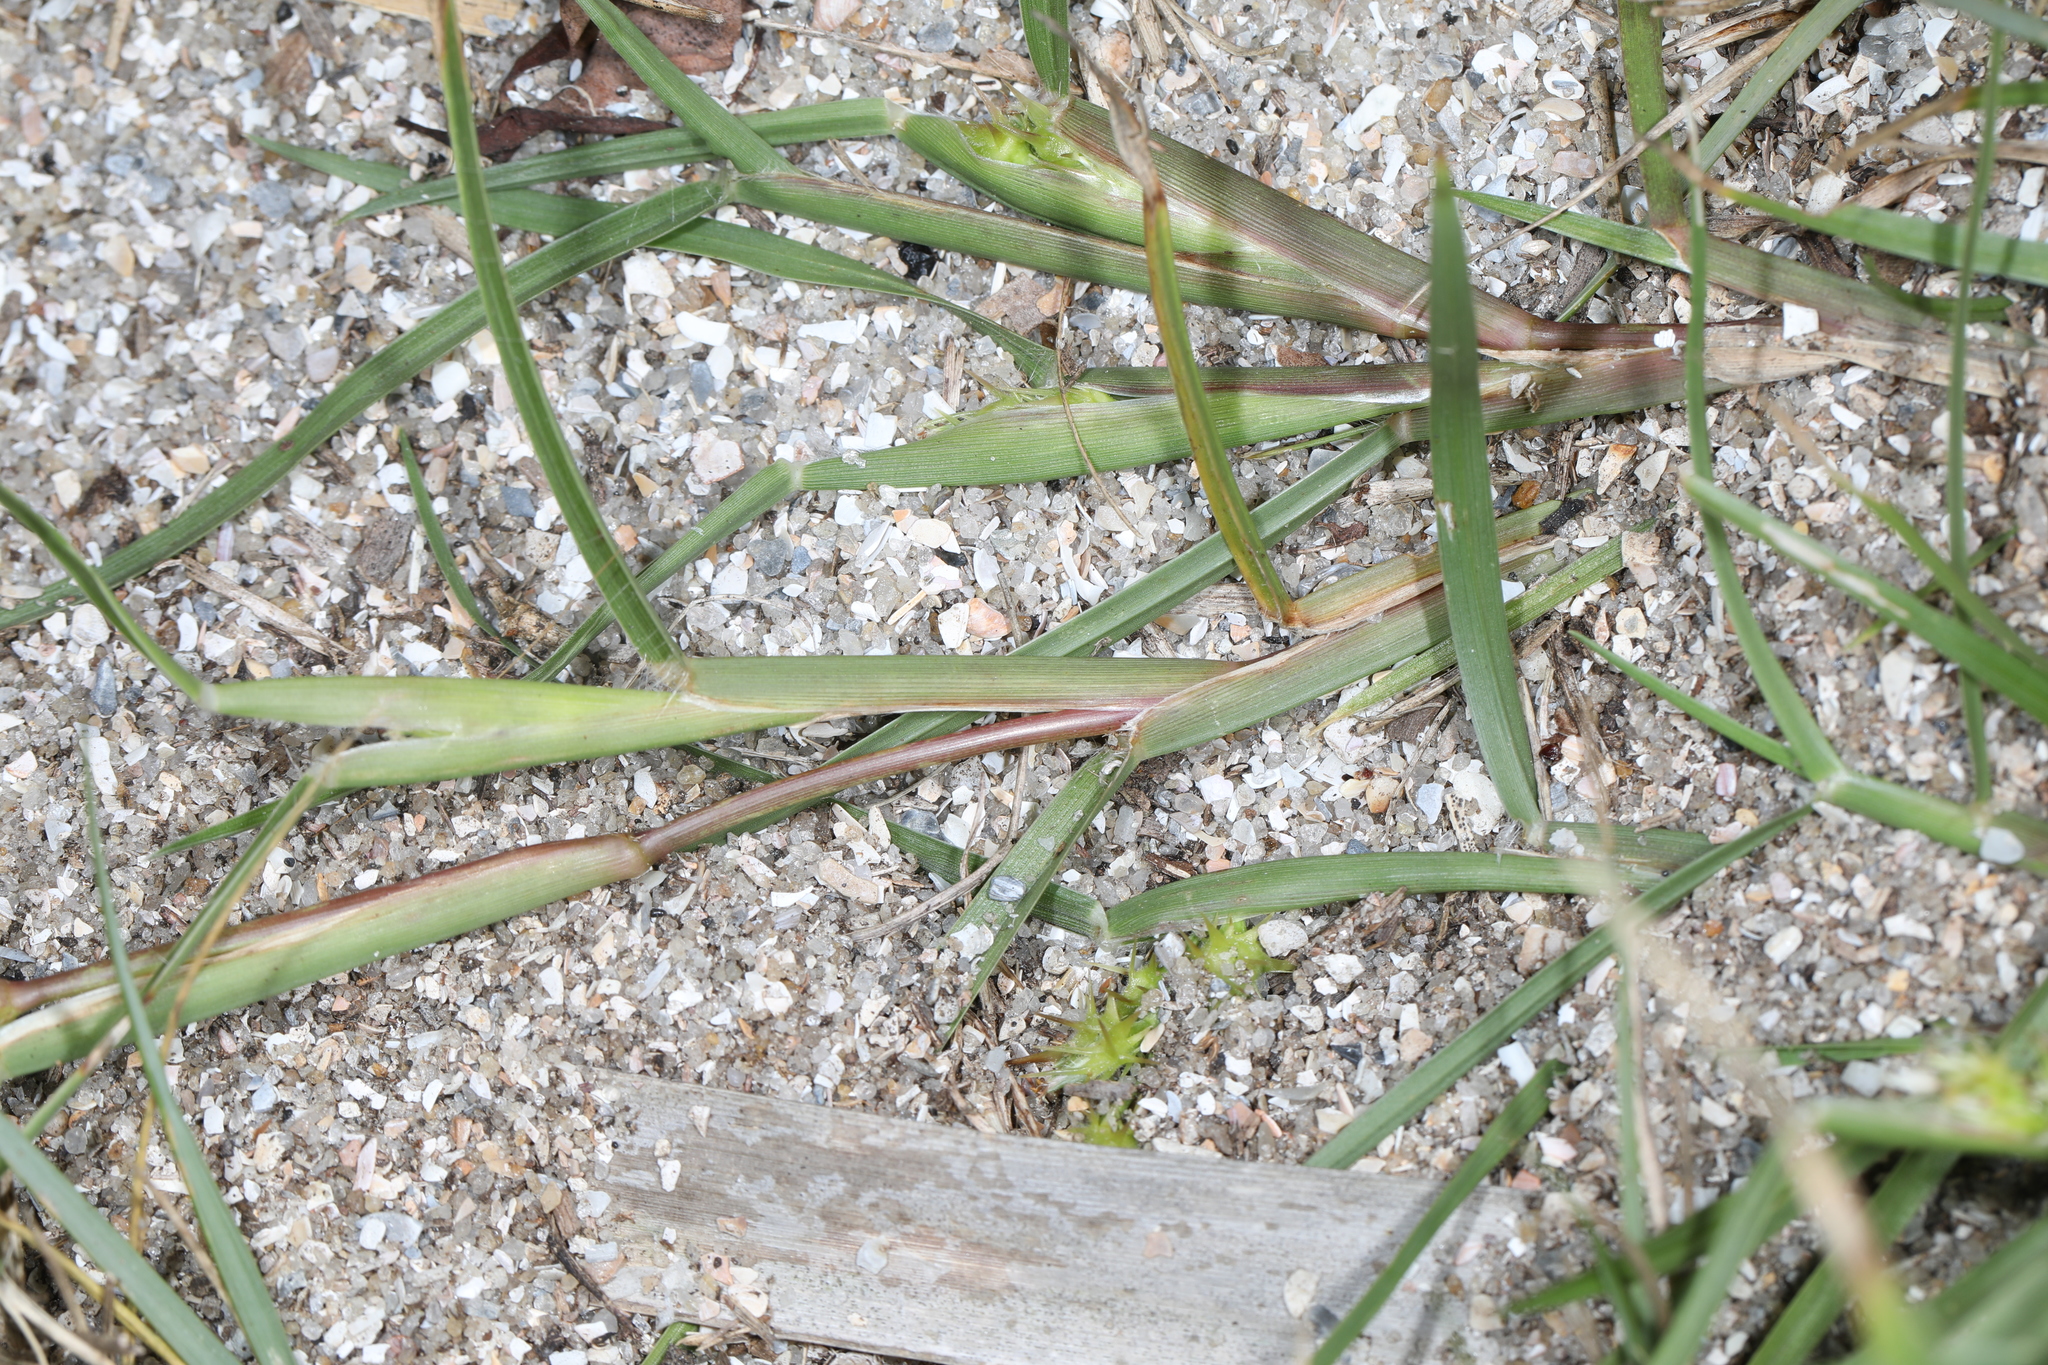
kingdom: Plantae
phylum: Tracheophyta
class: Liliopsida
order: Poales
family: Poaceae
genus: Cenchrus
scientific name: Cenchrus spinifex
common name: Coast sandbur
